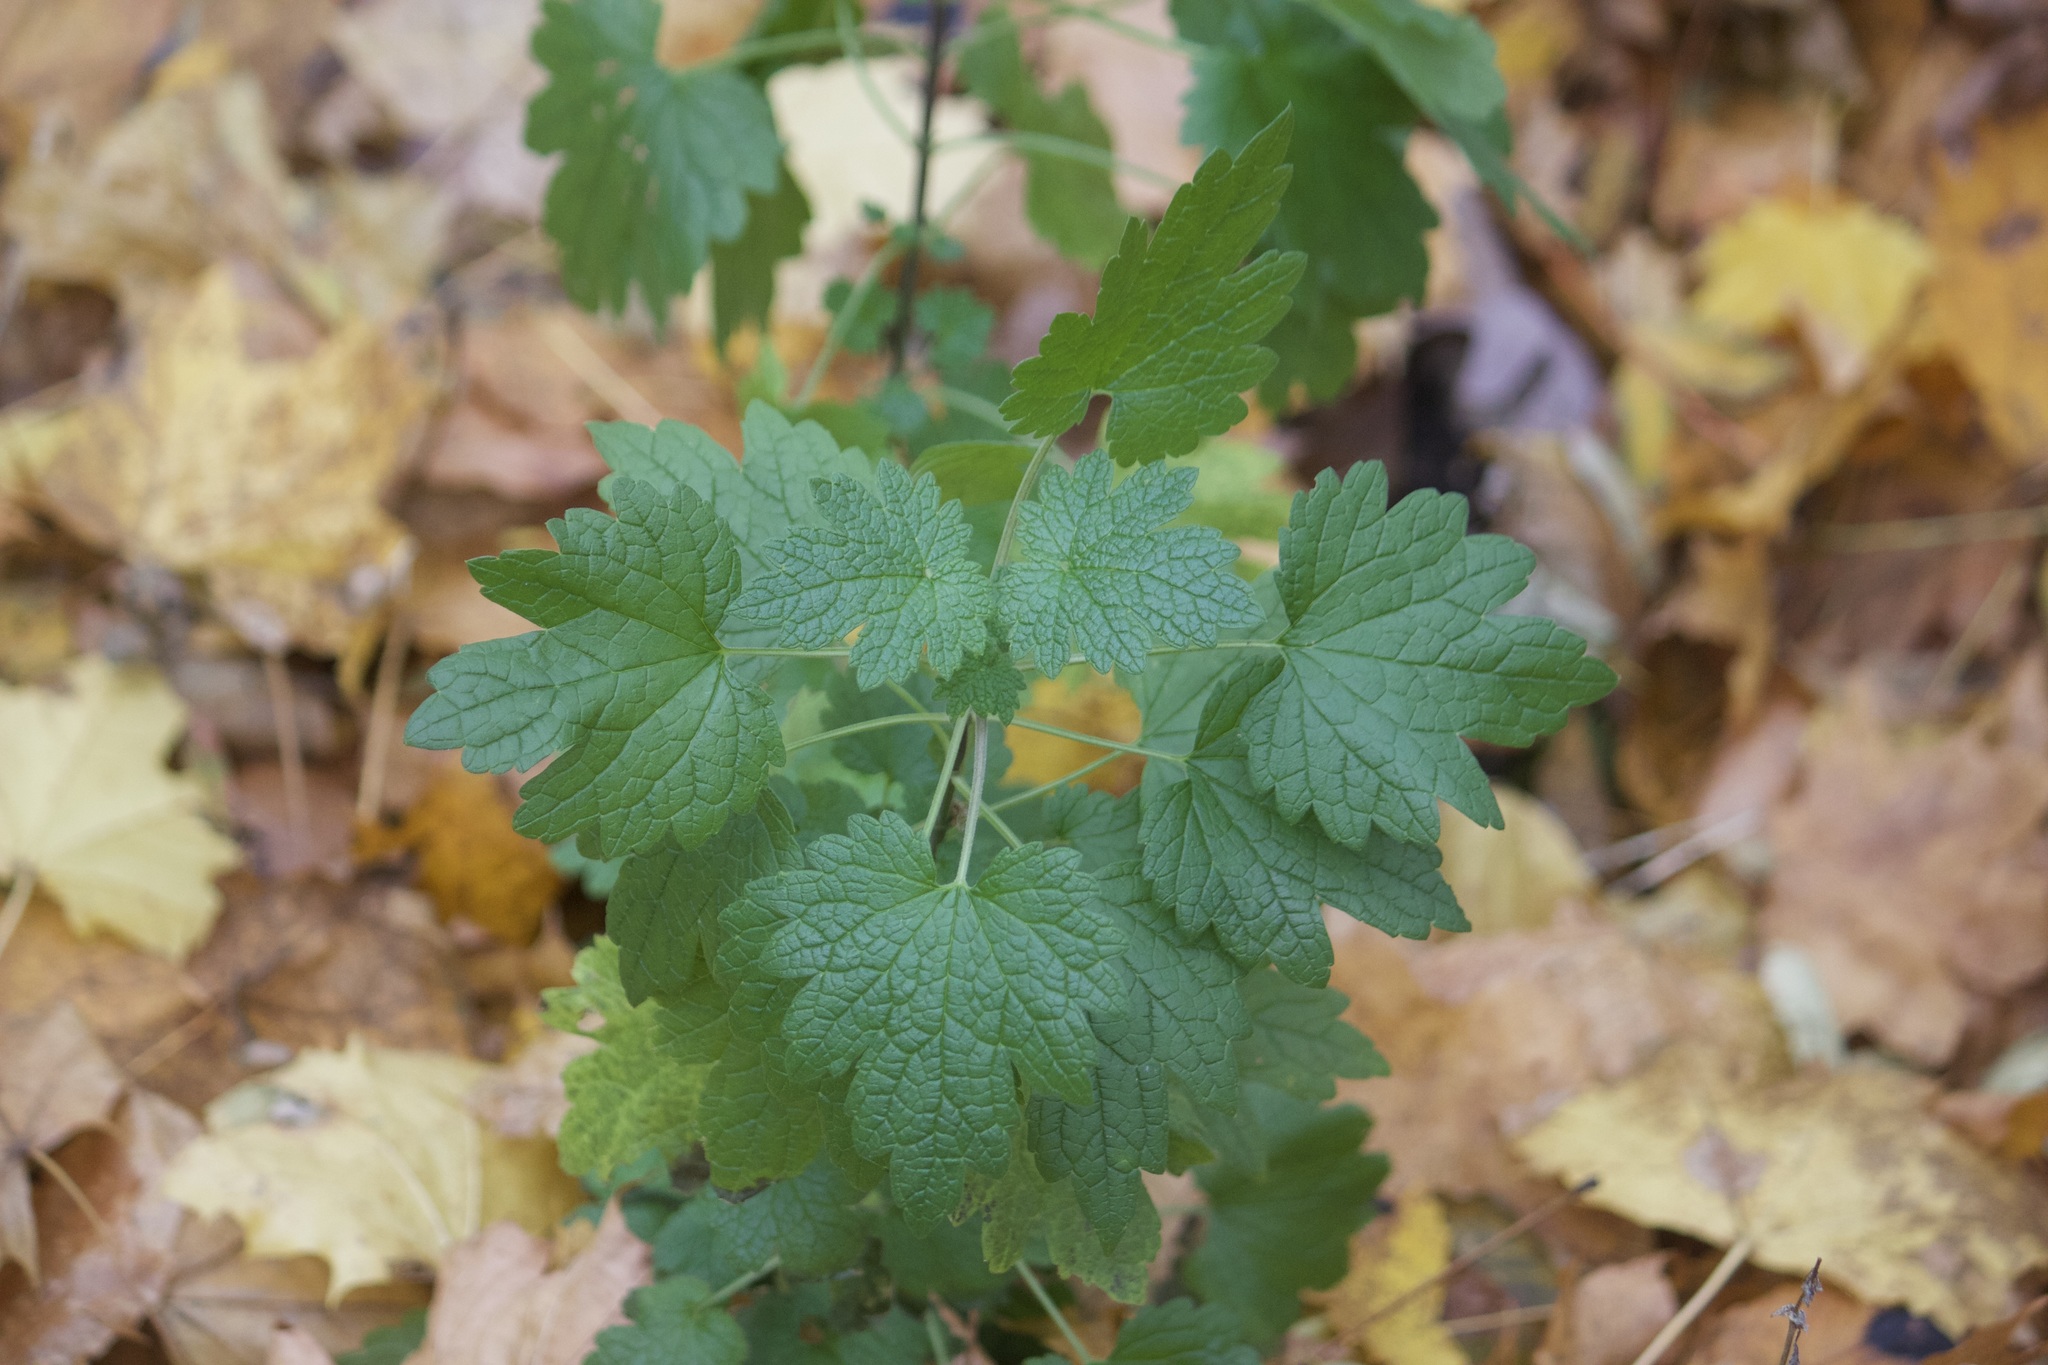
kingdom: Plantae
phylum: Tracheophyta
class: Magnoliopsida
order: Lamiales
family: Lamiaceae
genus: Leonurus
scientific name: Leonurus cardiaca
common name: Motherwort
